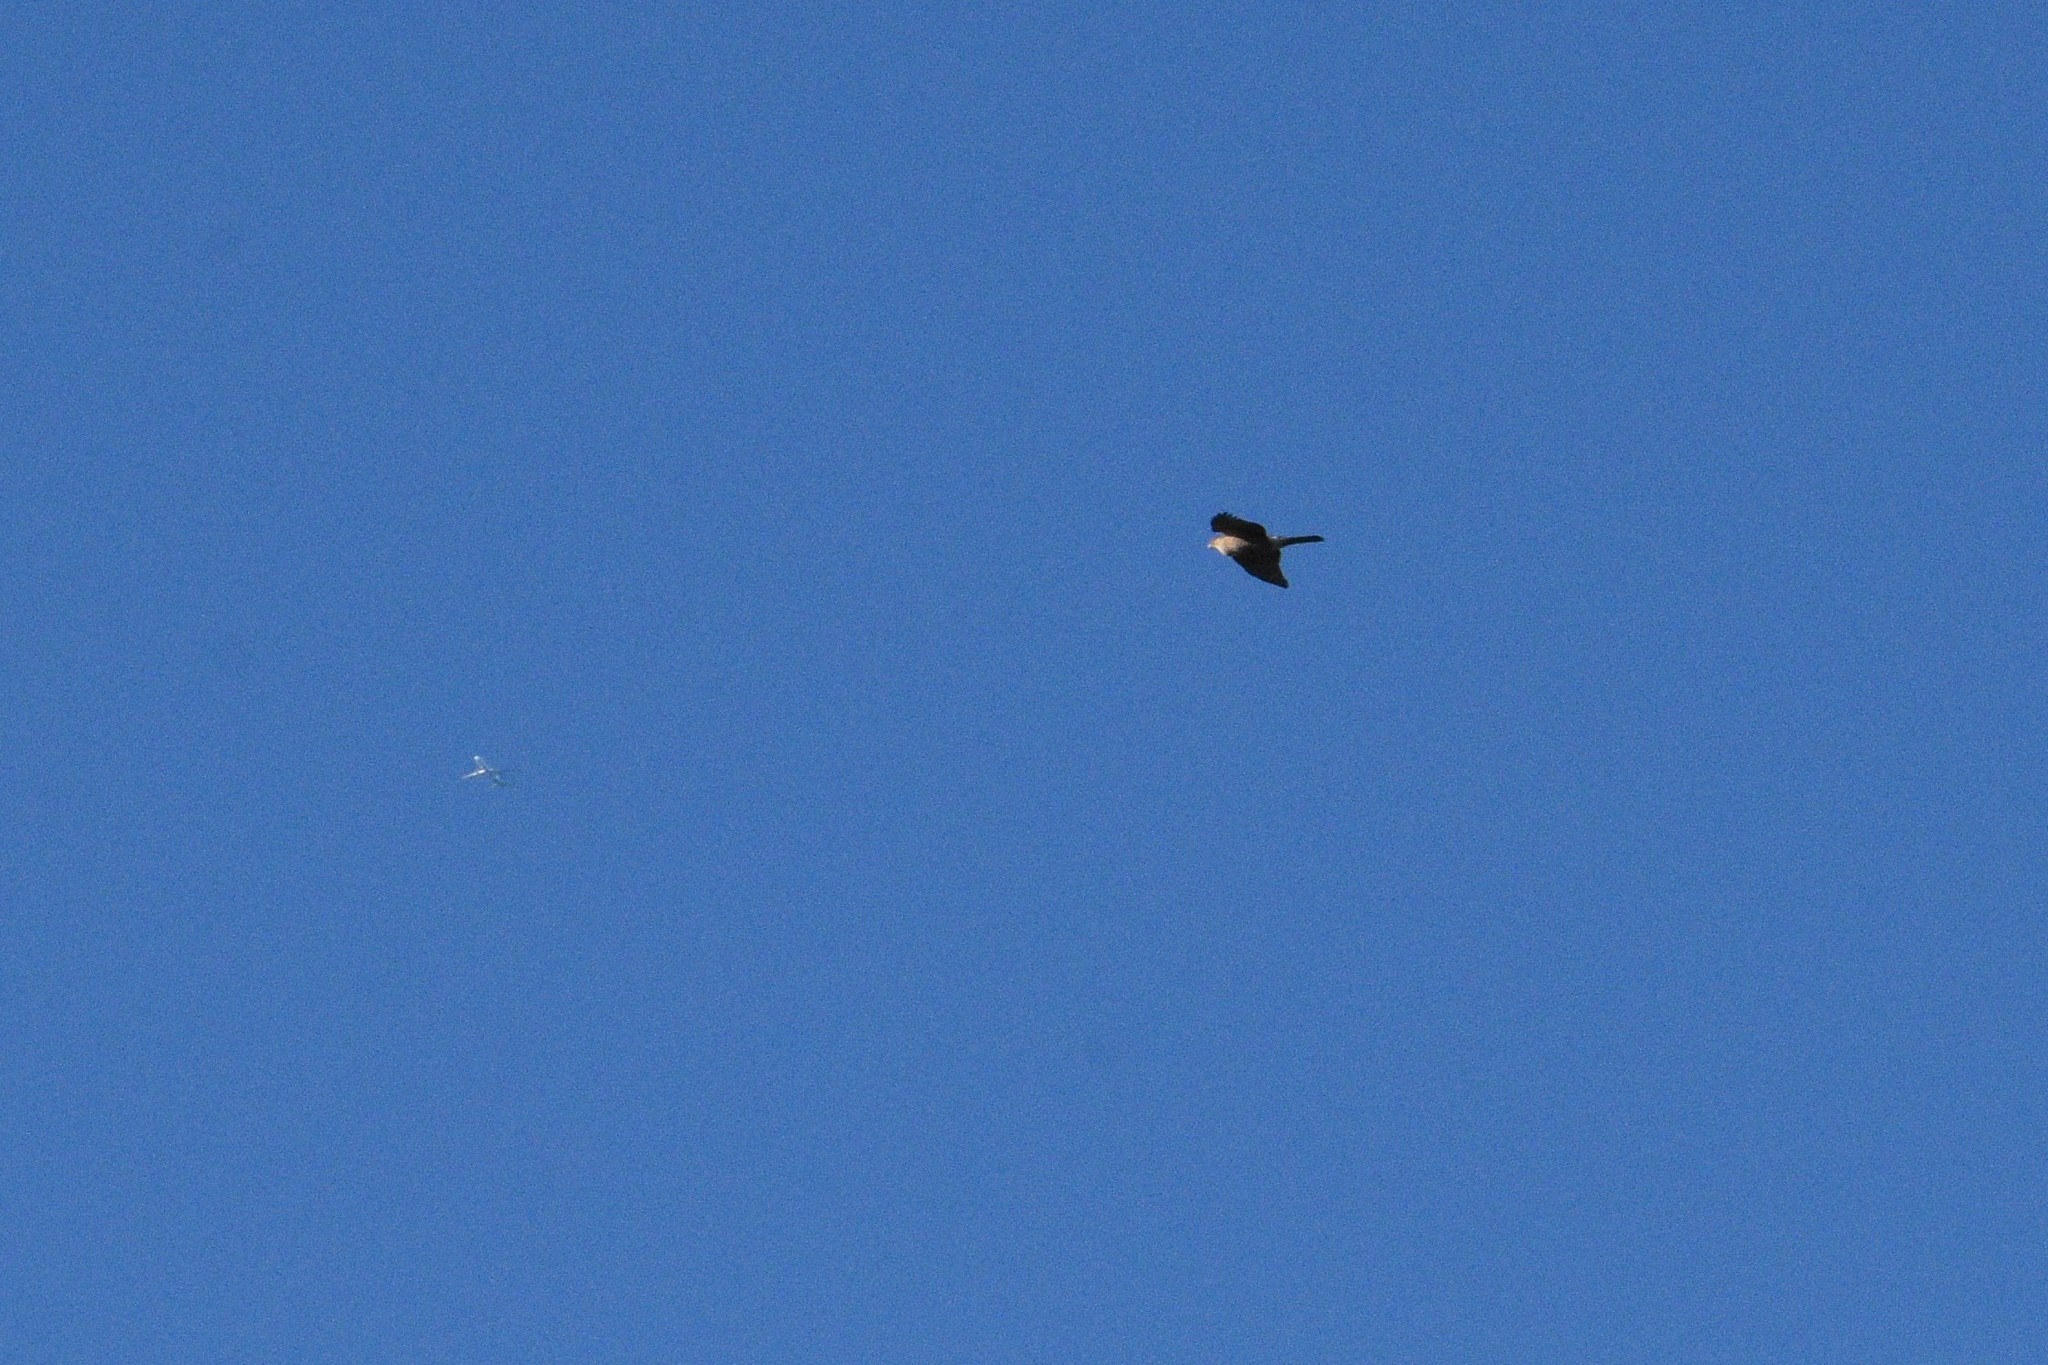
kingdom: Animalia
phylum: Chordata
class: Aves
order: Accipitriformes
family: Accipitridae
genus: Accipiter
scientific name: Accipiter cooperii
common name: Cooper's hawk
